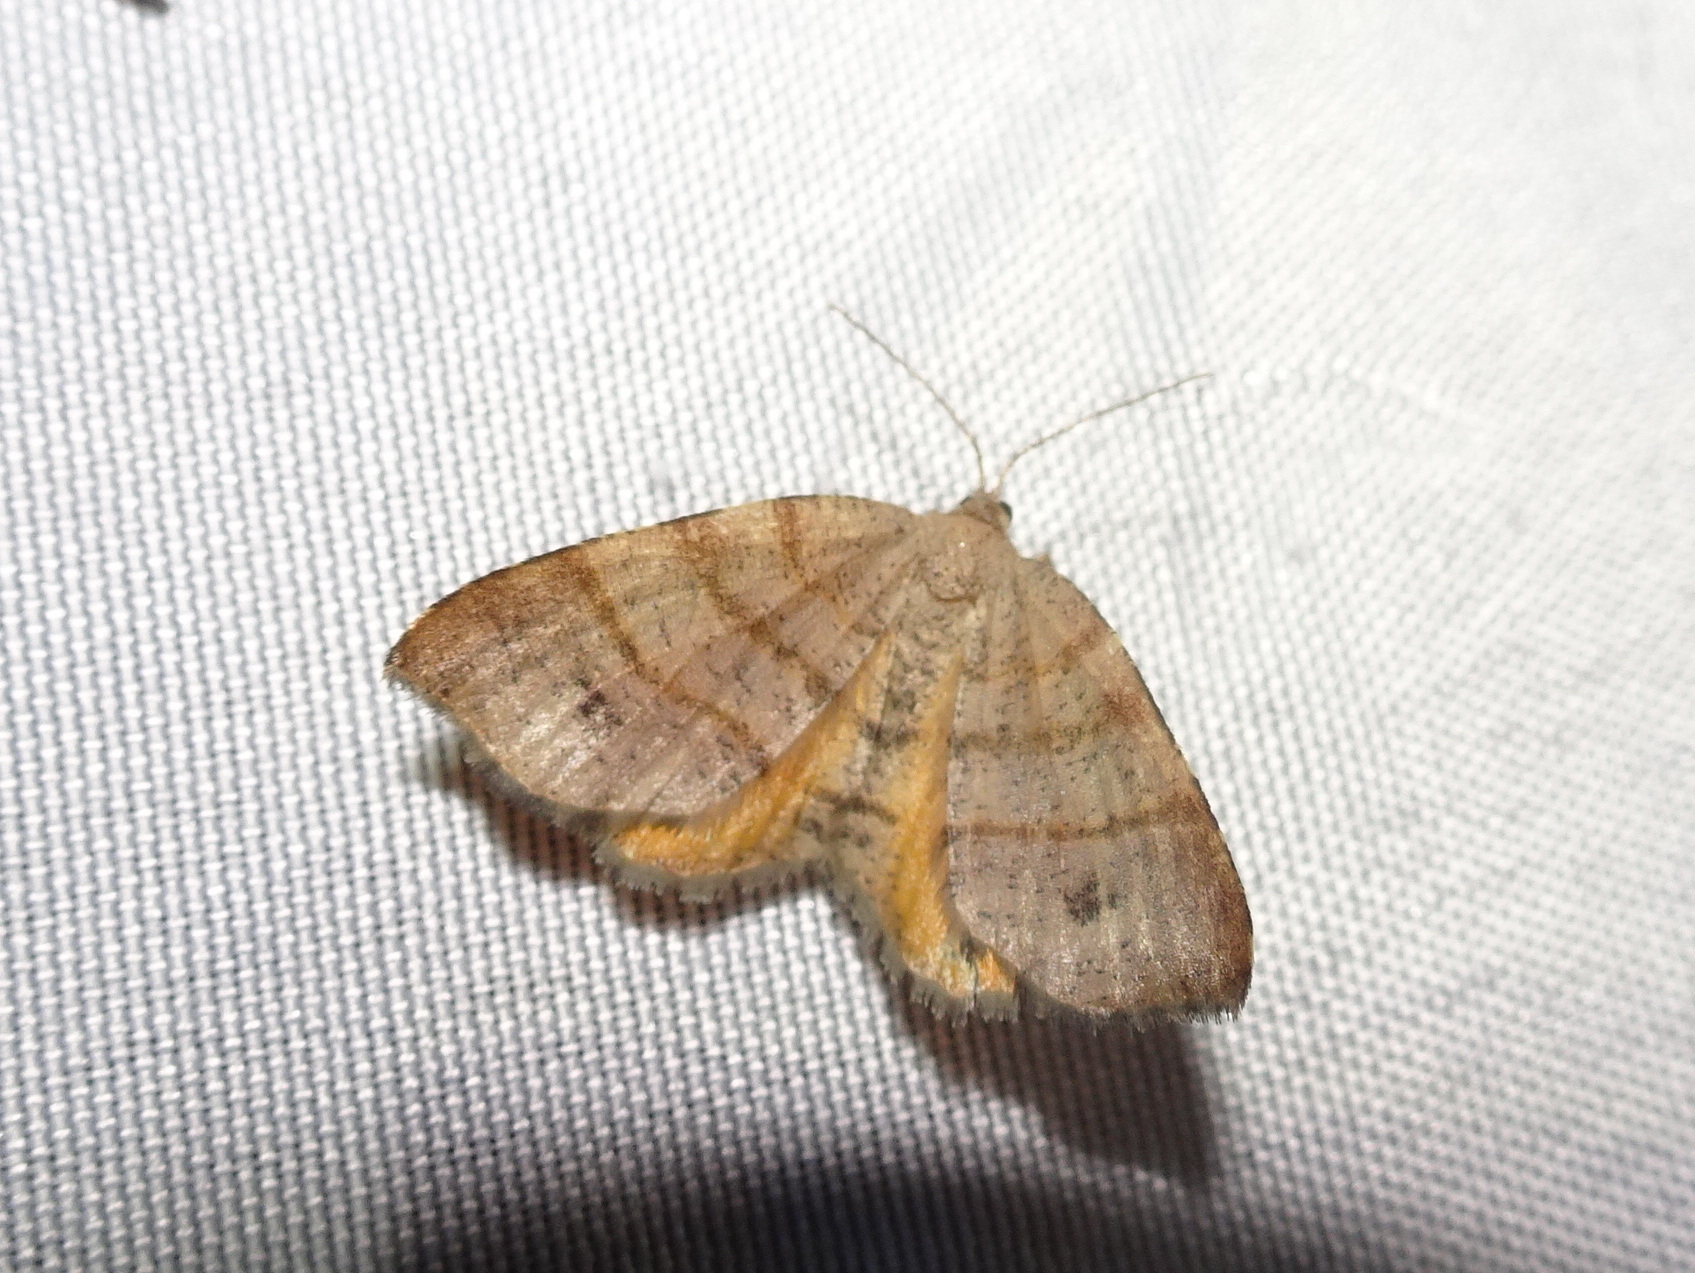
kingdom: Animalia
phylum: Arthropoda
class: Insecta
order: Lepidoptera
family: Geometridae
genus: Mellilla
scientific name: Mellilla xanthometata
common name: Orange wing moth
